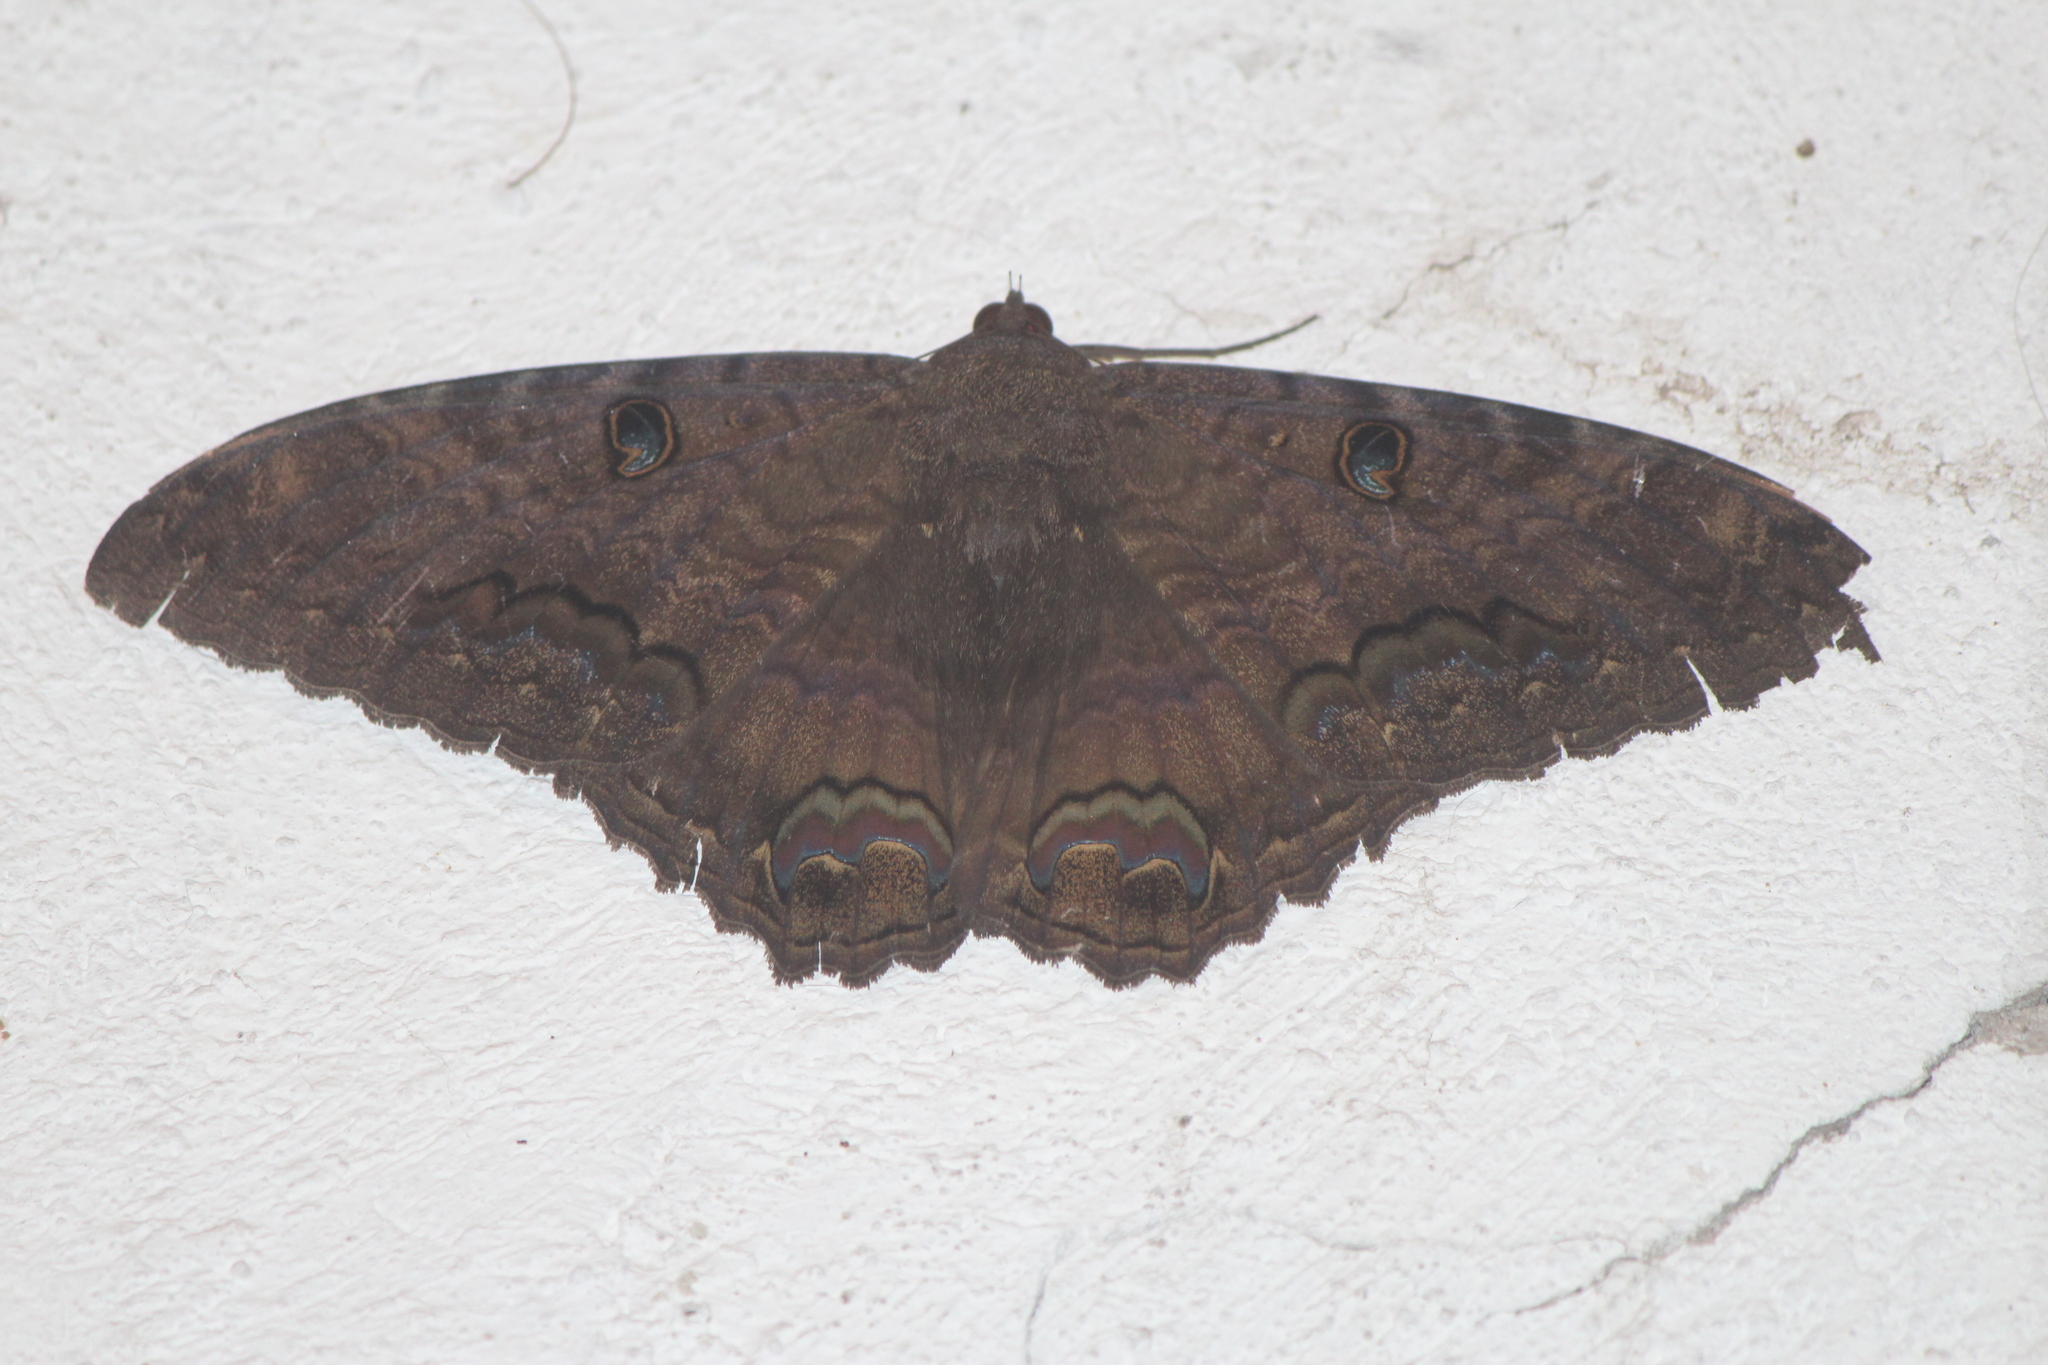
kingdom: Animalia
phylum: Arthropoda
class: Insecta
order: Lepidoptera
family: Erebidae
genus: Ascalapha
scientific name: Ascalapha odorata
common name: Black witch
